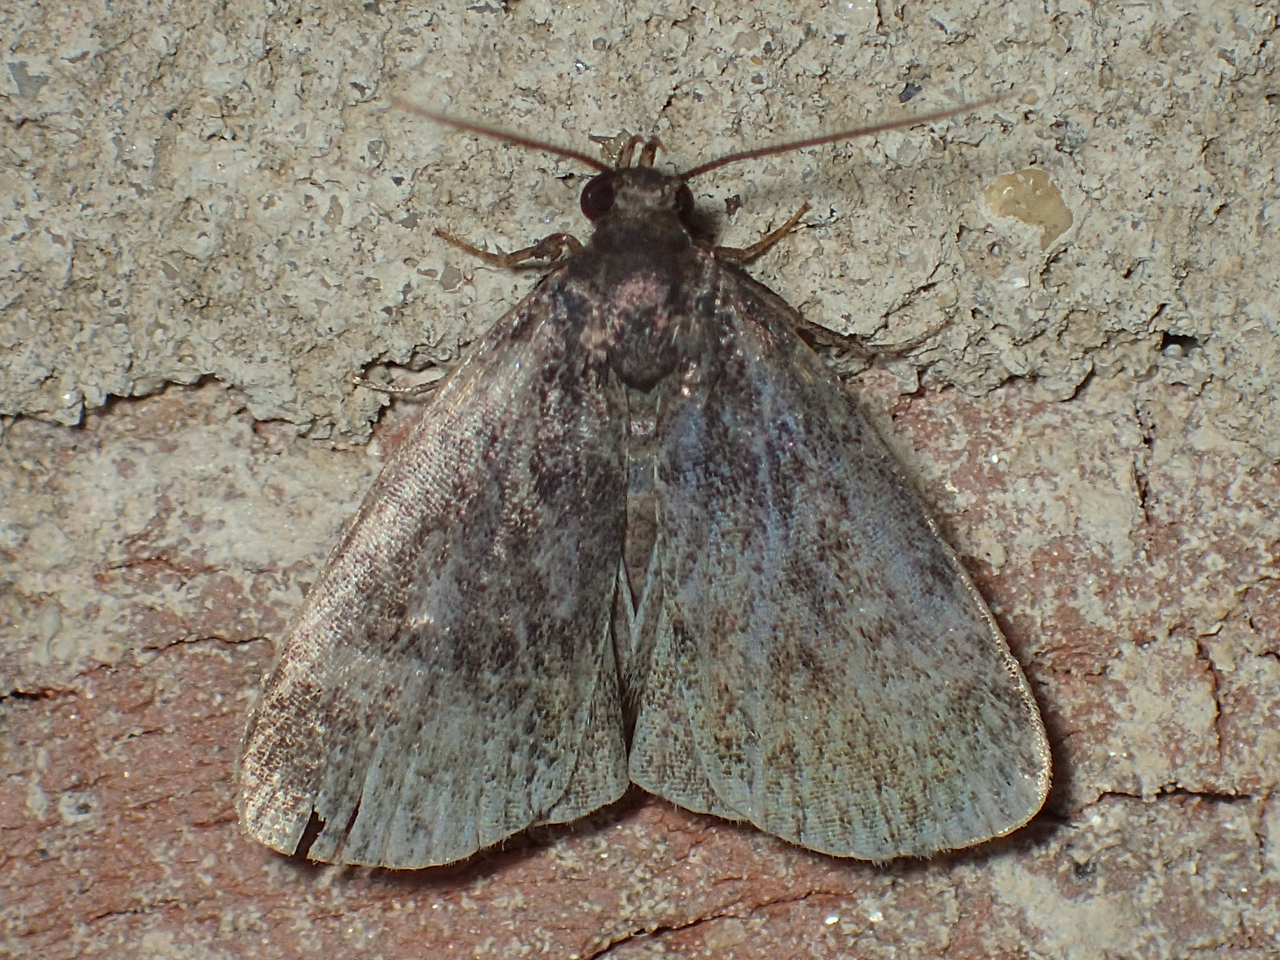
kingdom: Animalia
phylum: Arthropoda
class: Insecta
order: Lepidoptera
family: Erebidae
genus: Idia
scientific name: Idia rotundalis
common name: Rotund idia moth
